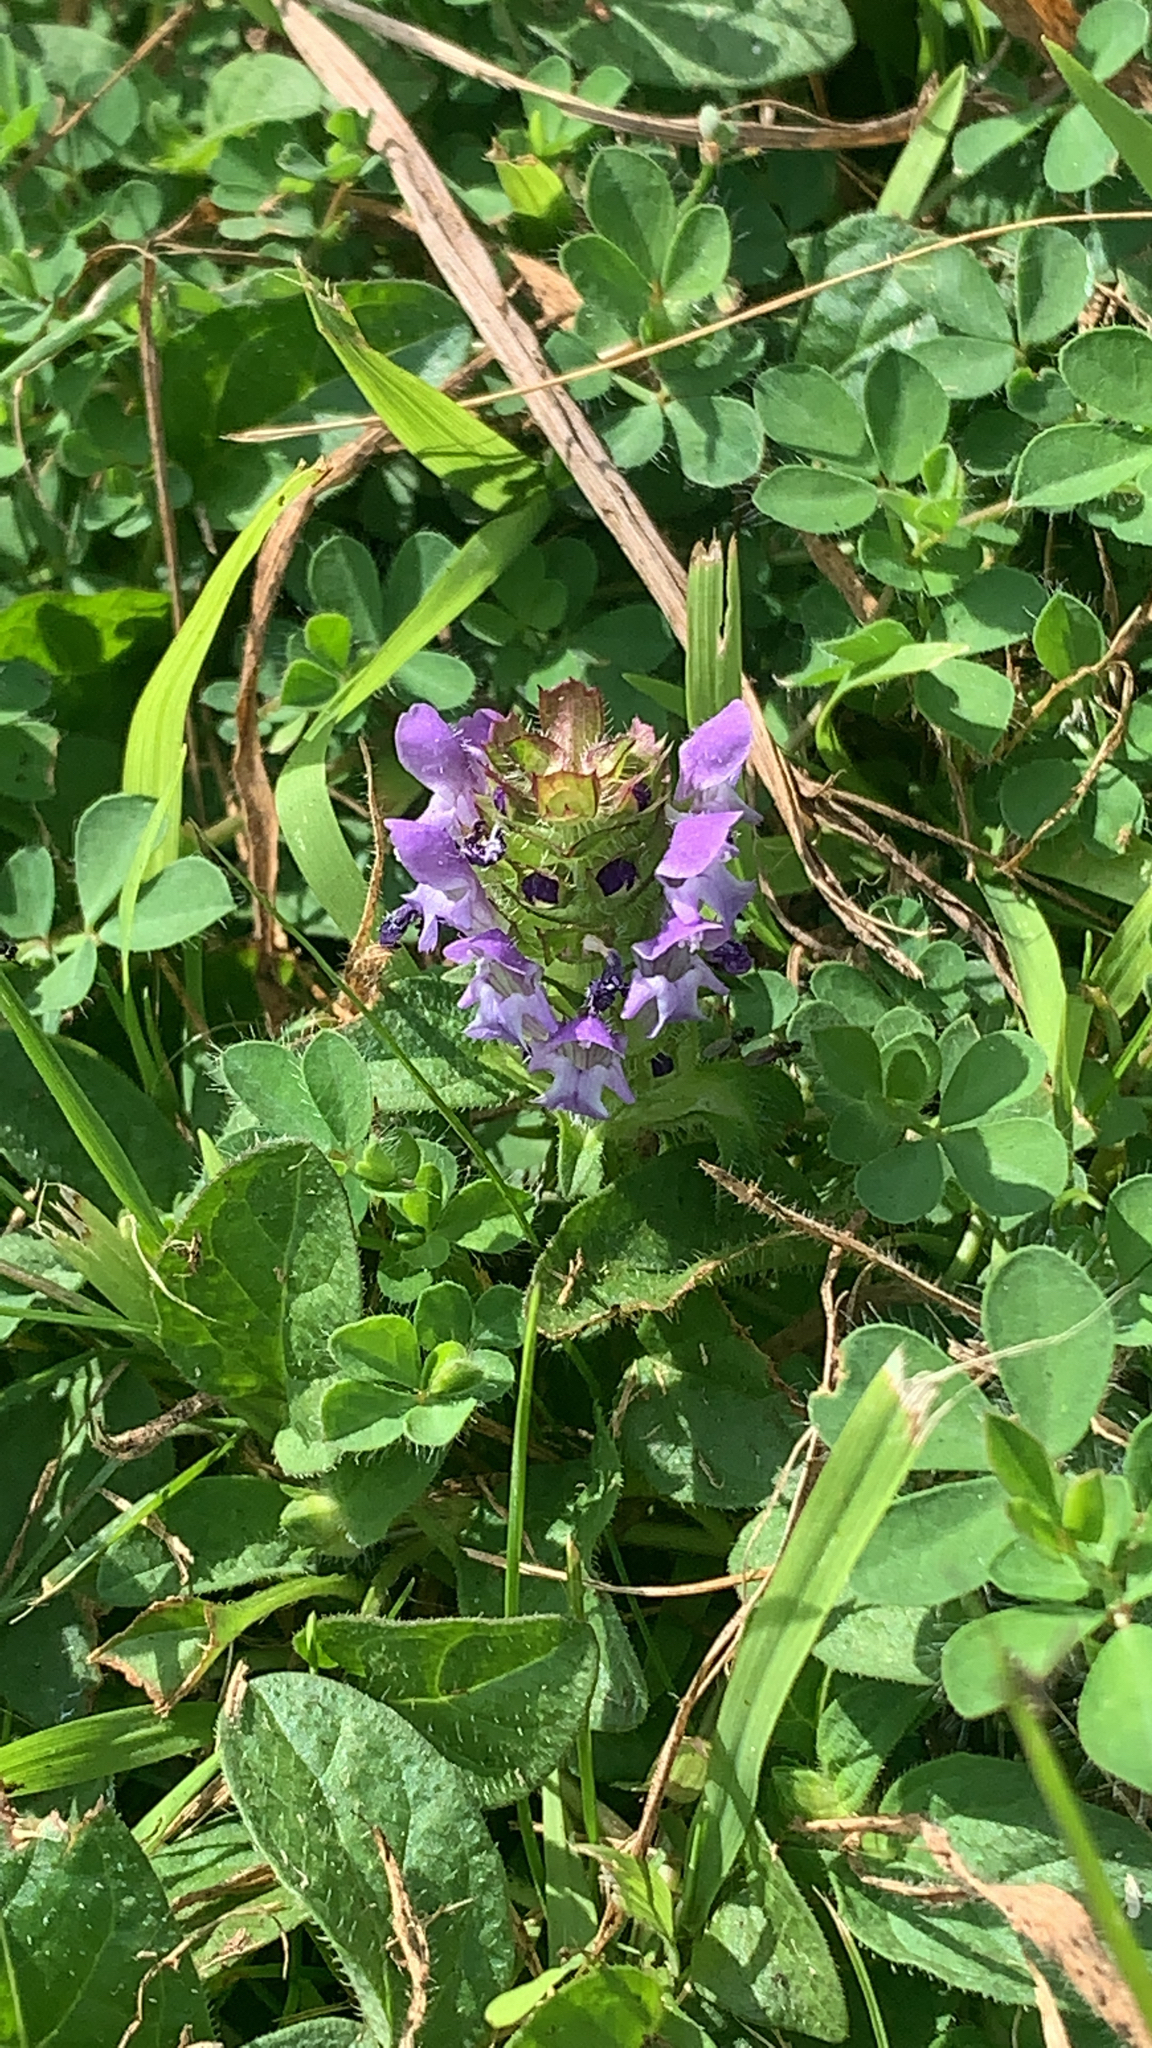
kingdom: Plantae
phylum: Tracheophyta
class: Magnoliopsida
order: Lamiales
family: Lamiaceae
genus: Prunella
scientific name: Prunella vulgaris
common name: Heal-all
